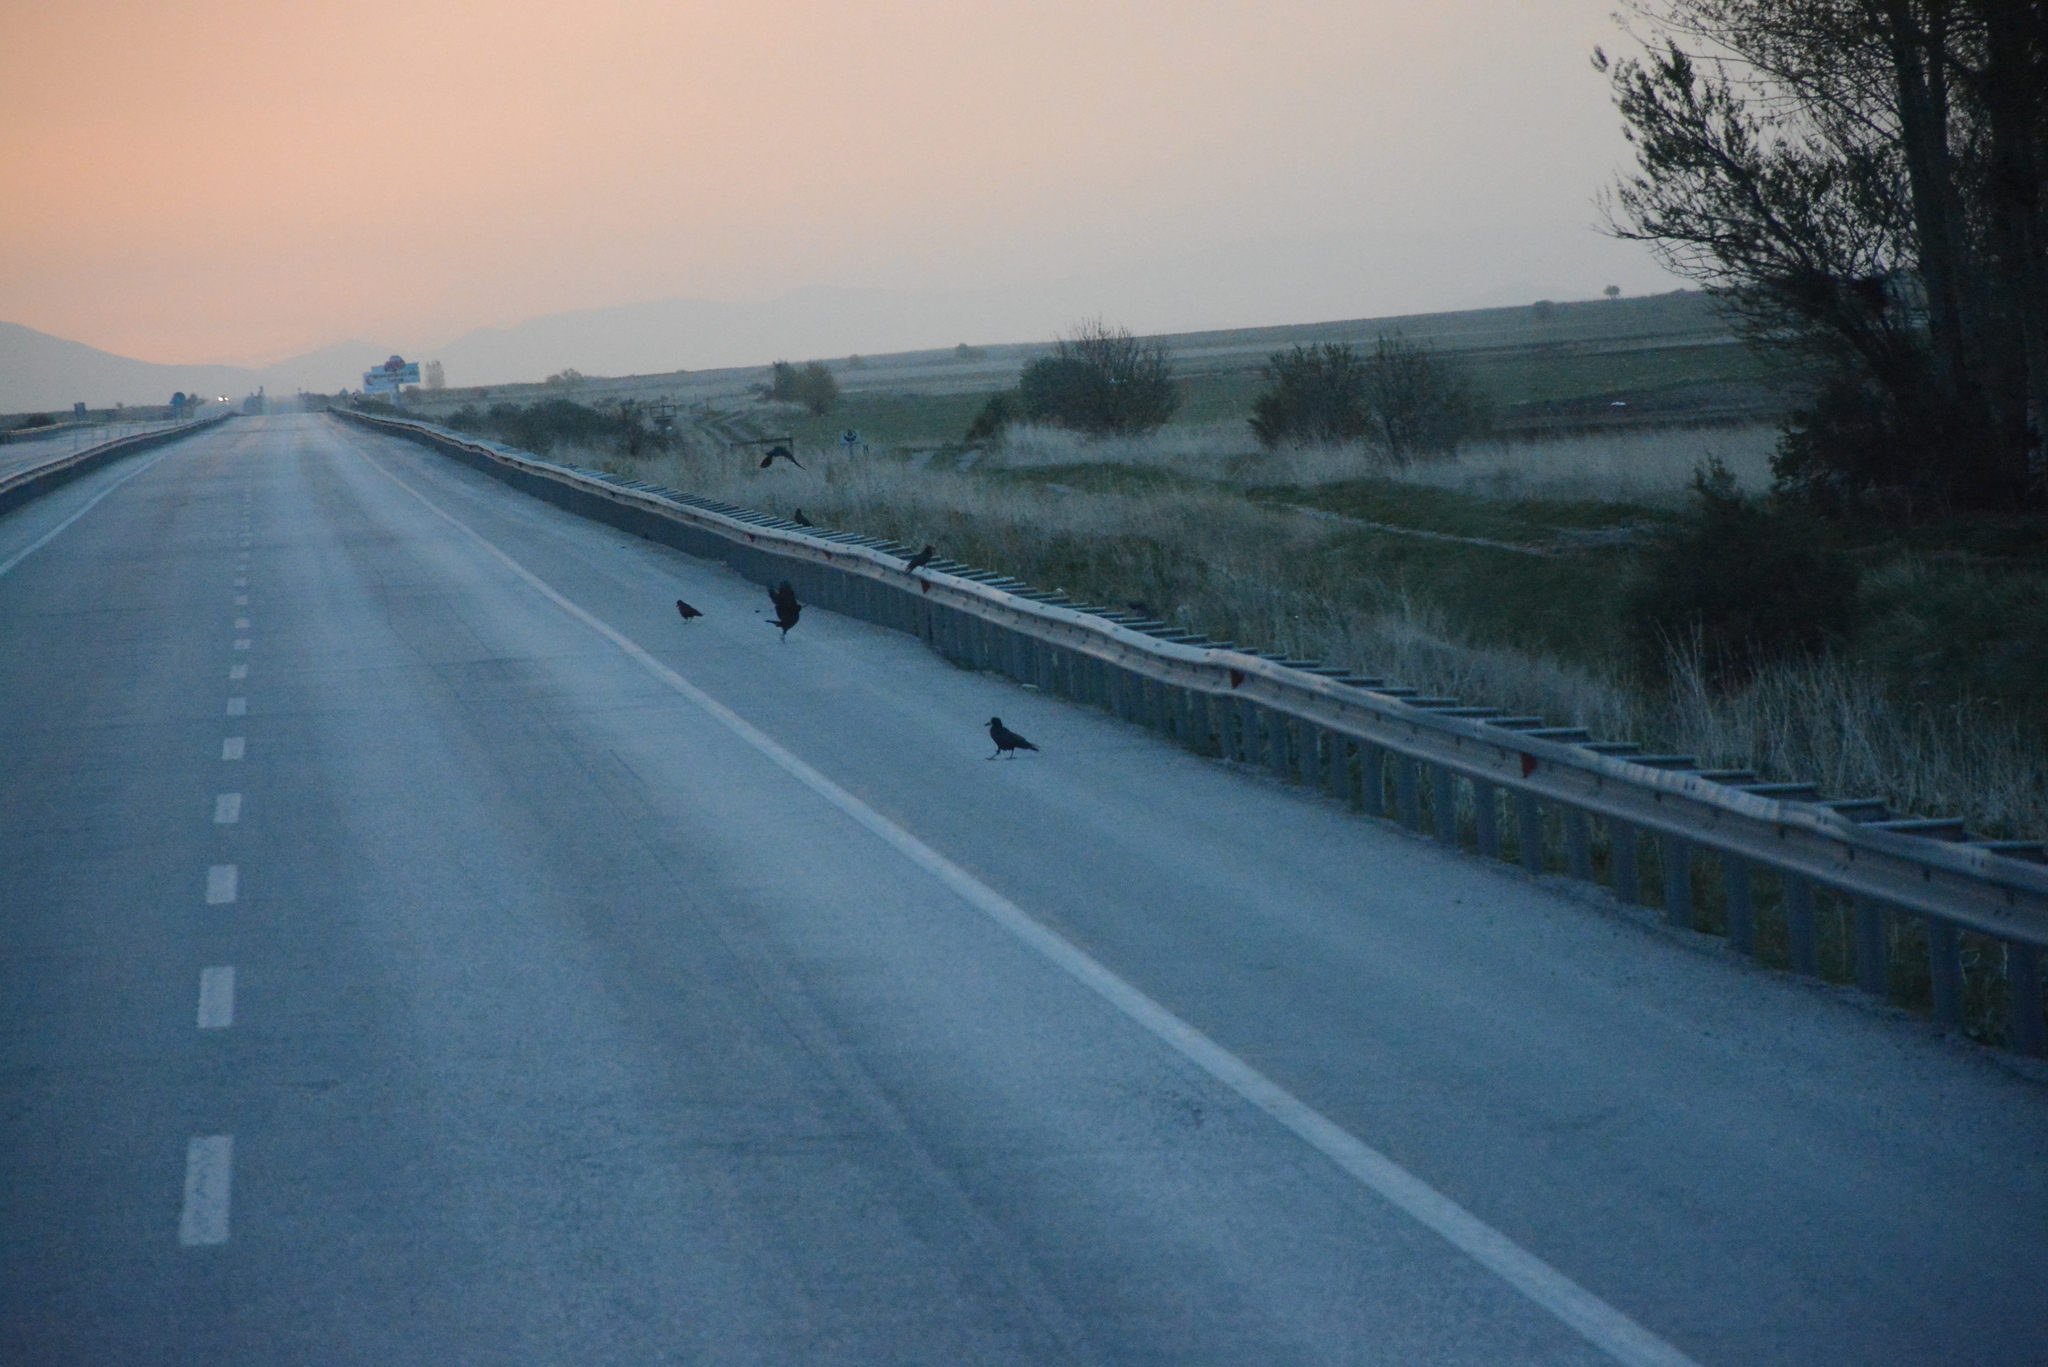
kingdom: Animalia
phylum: Chordata
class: Aves
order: Passeriformes
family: Corvidae
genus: Corvus
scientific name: Corvus frugilegus
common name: Rook
